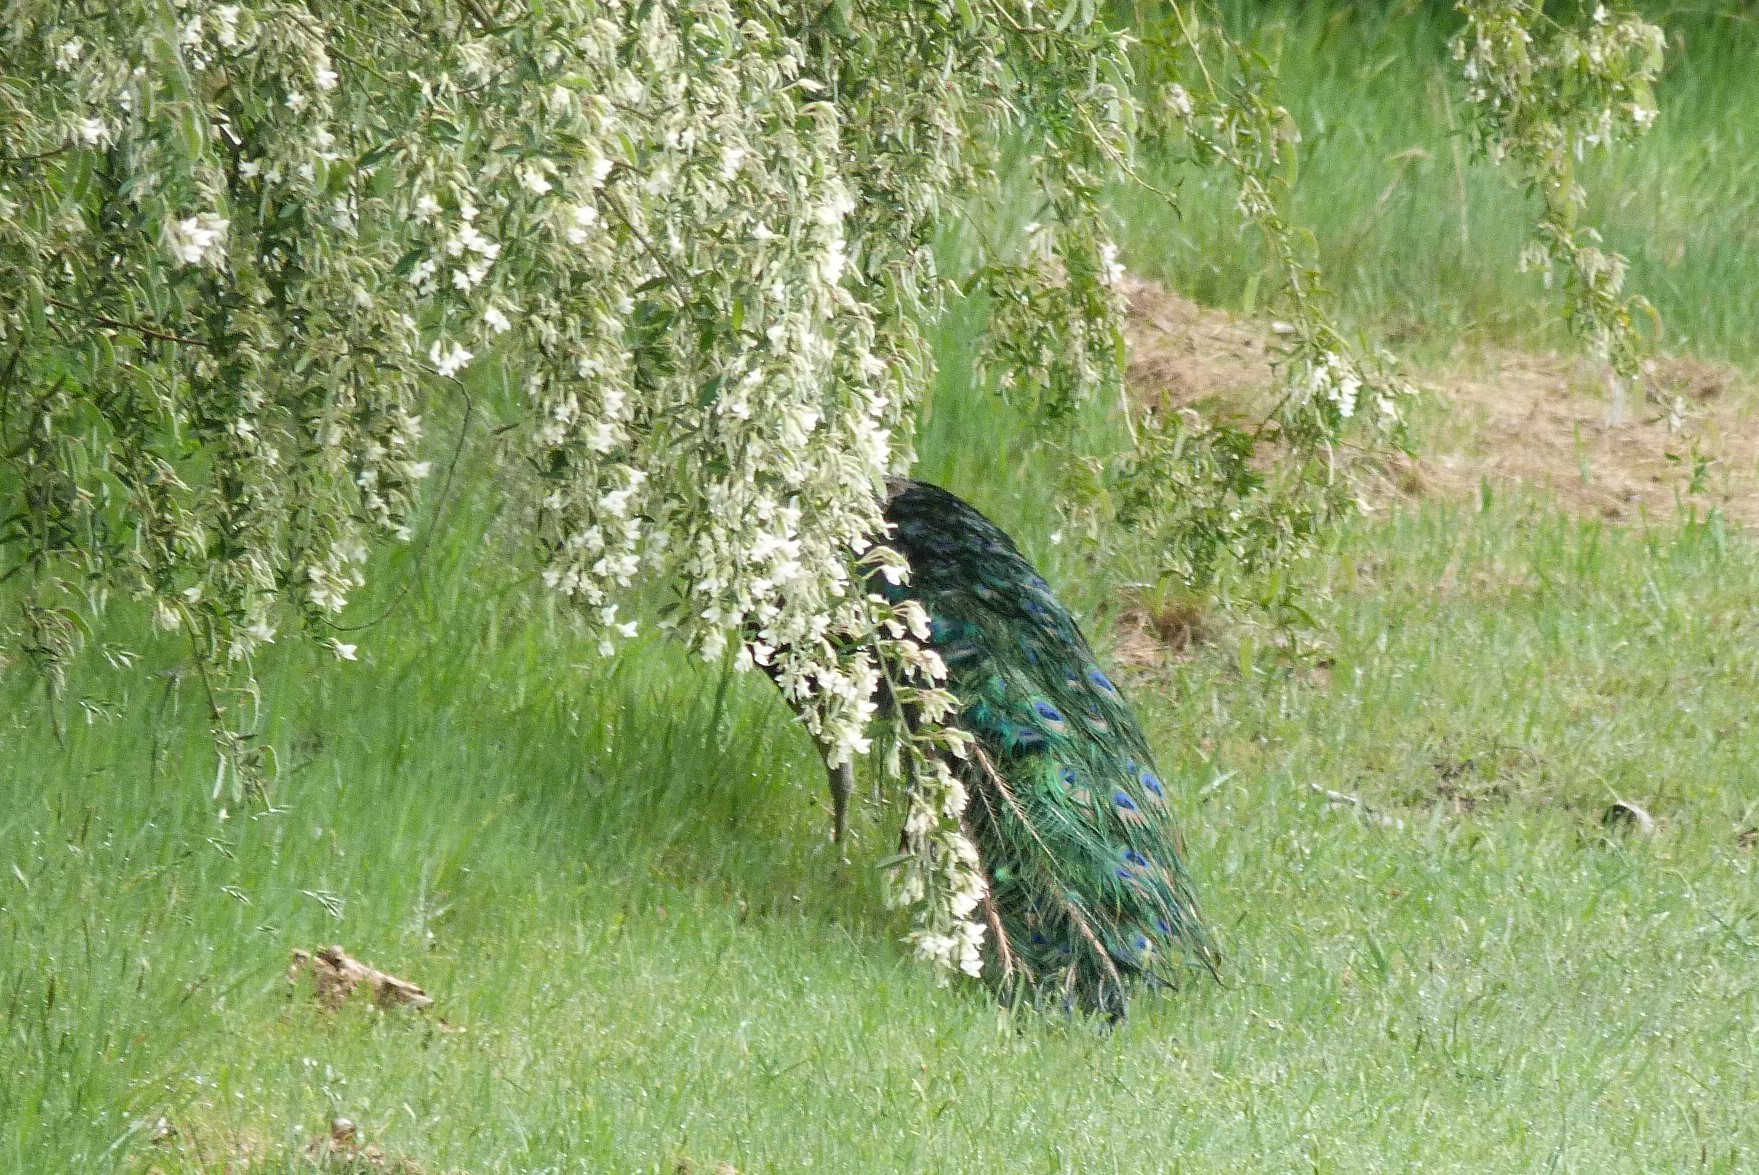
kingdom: Animalia
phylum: Chordata
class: Aves
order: Galliformes
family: Phasianidae
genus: Pavo
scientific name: Pavo cristatus
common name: Indian peafowl
